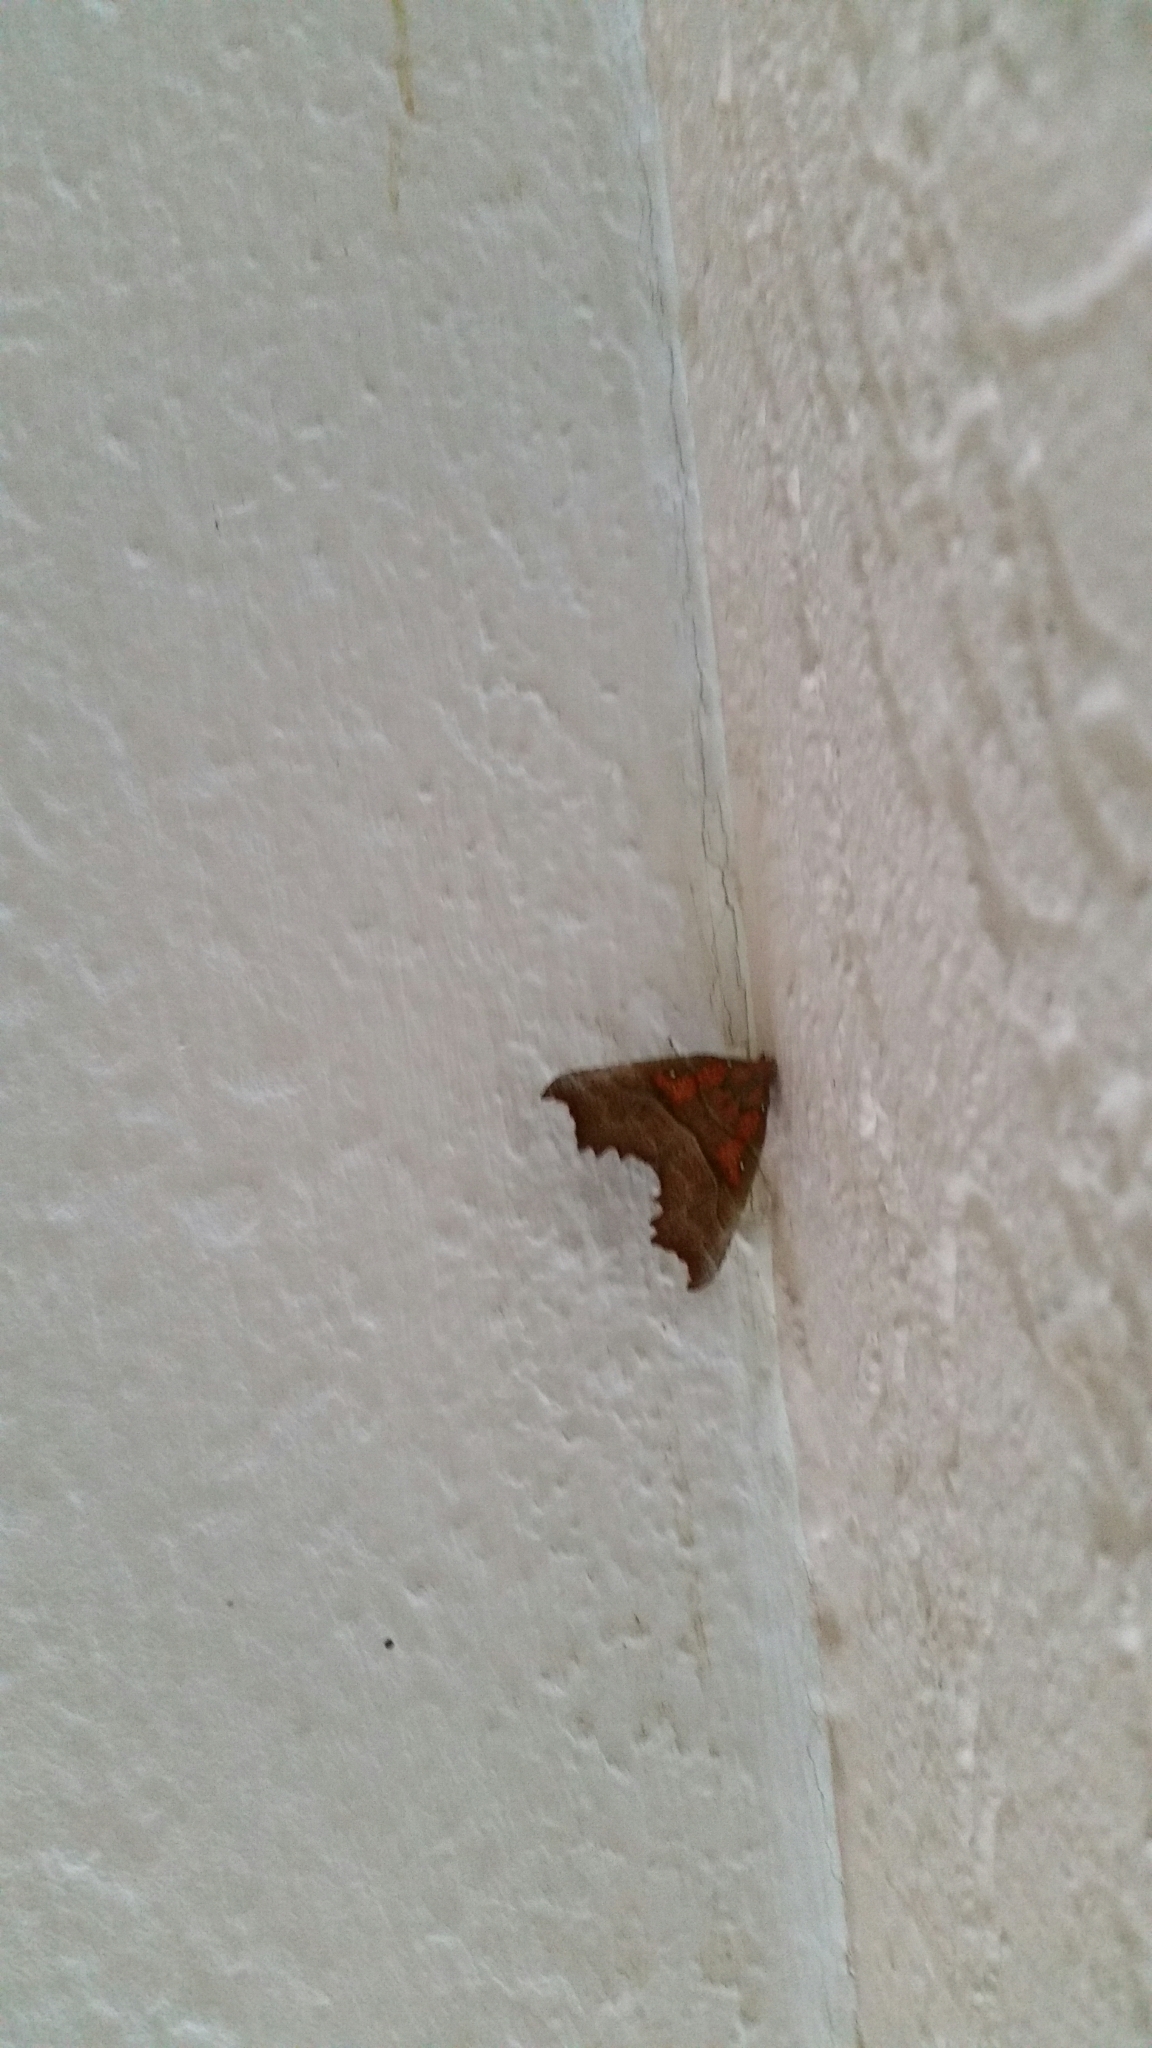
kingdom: Animalia
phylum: Arthropoda
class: Insecta
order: Lepidoptera
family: Erebidae
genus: Scoliopteryx
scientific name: Scoliopteryx libatrix
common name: Herald
